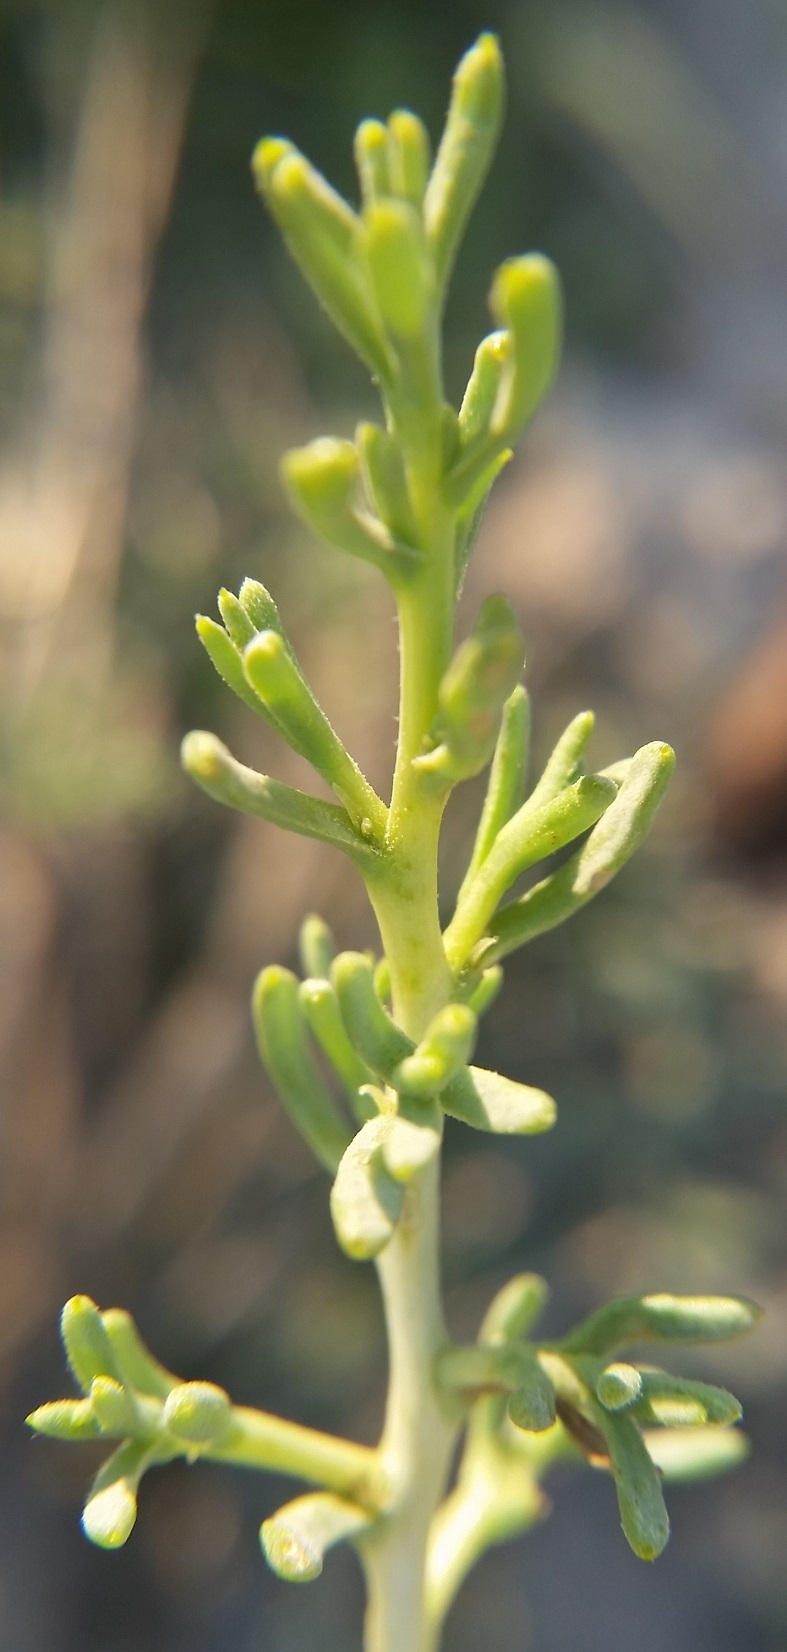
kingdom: Plantae
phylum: Tracheophyta
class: Magnoliopsida
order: Caryophyllales
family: Sarcobataceae
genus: Sarcobatus
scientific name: Sarcobatus vermiculatus
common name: Greasewood
